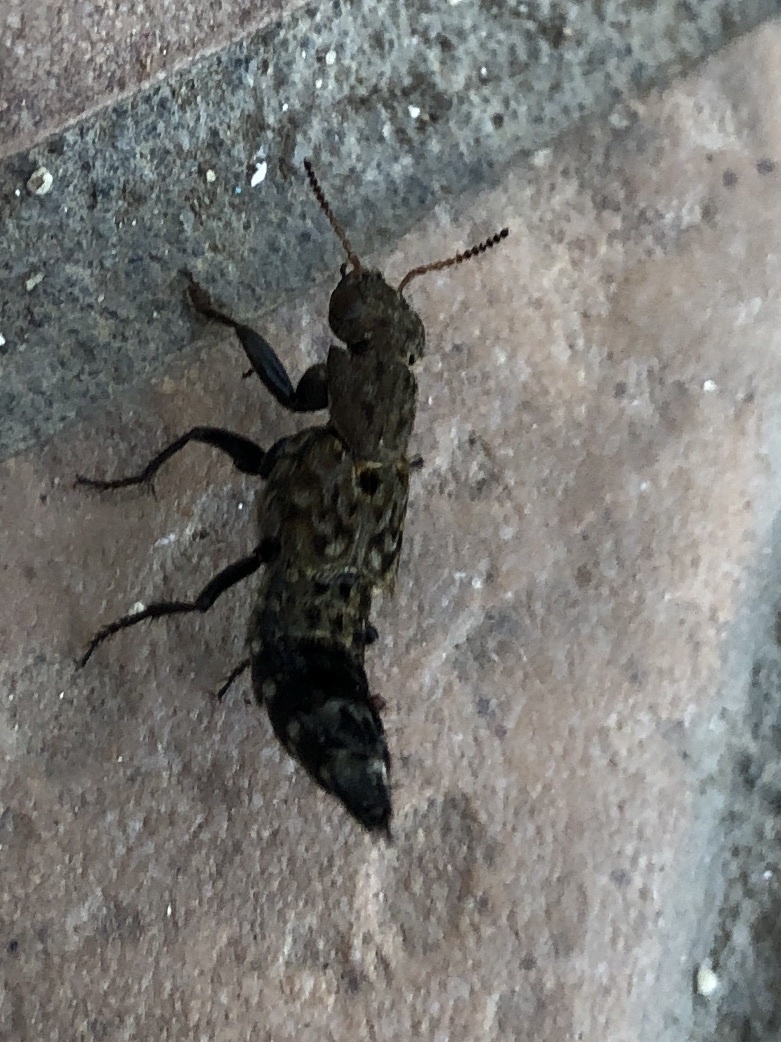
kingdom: Animalia
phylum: Arthropoda
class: Insecta
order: Coleoptera
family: Staphylinidae
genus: Ontholestes
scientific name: Ontholestes murinus
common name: Staph beetle
